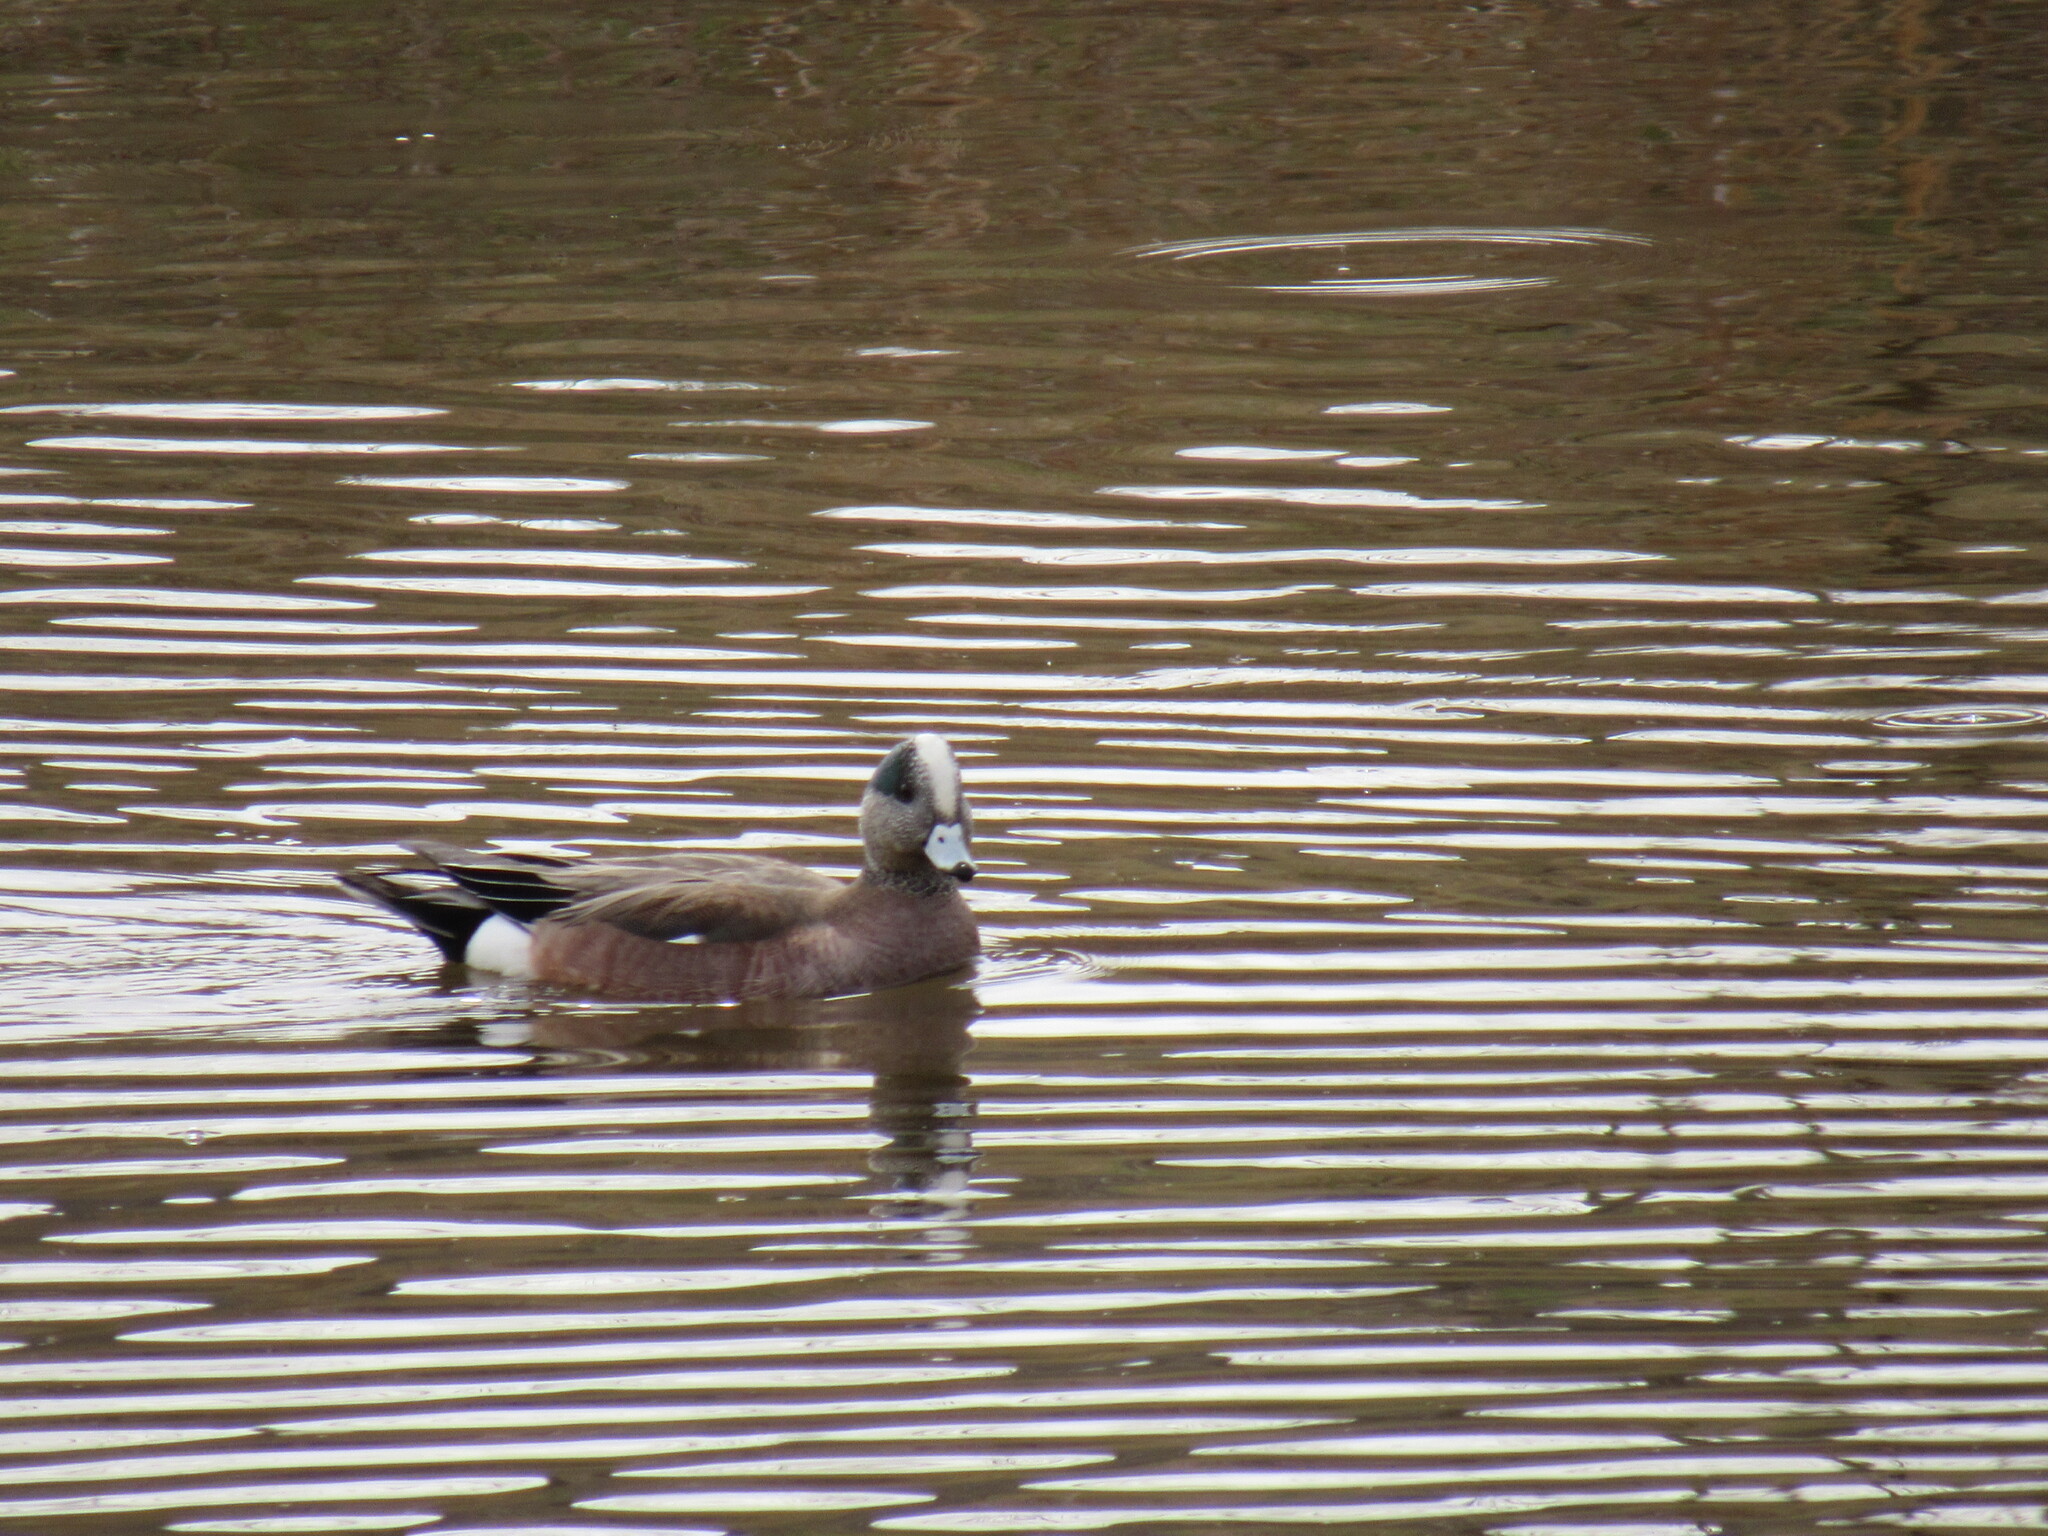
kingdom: Animalia
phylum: Chordata
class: Aves
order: Anseriformes
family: Anatidae
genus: Mareca
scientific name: Mareca americana
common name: American wigeon
